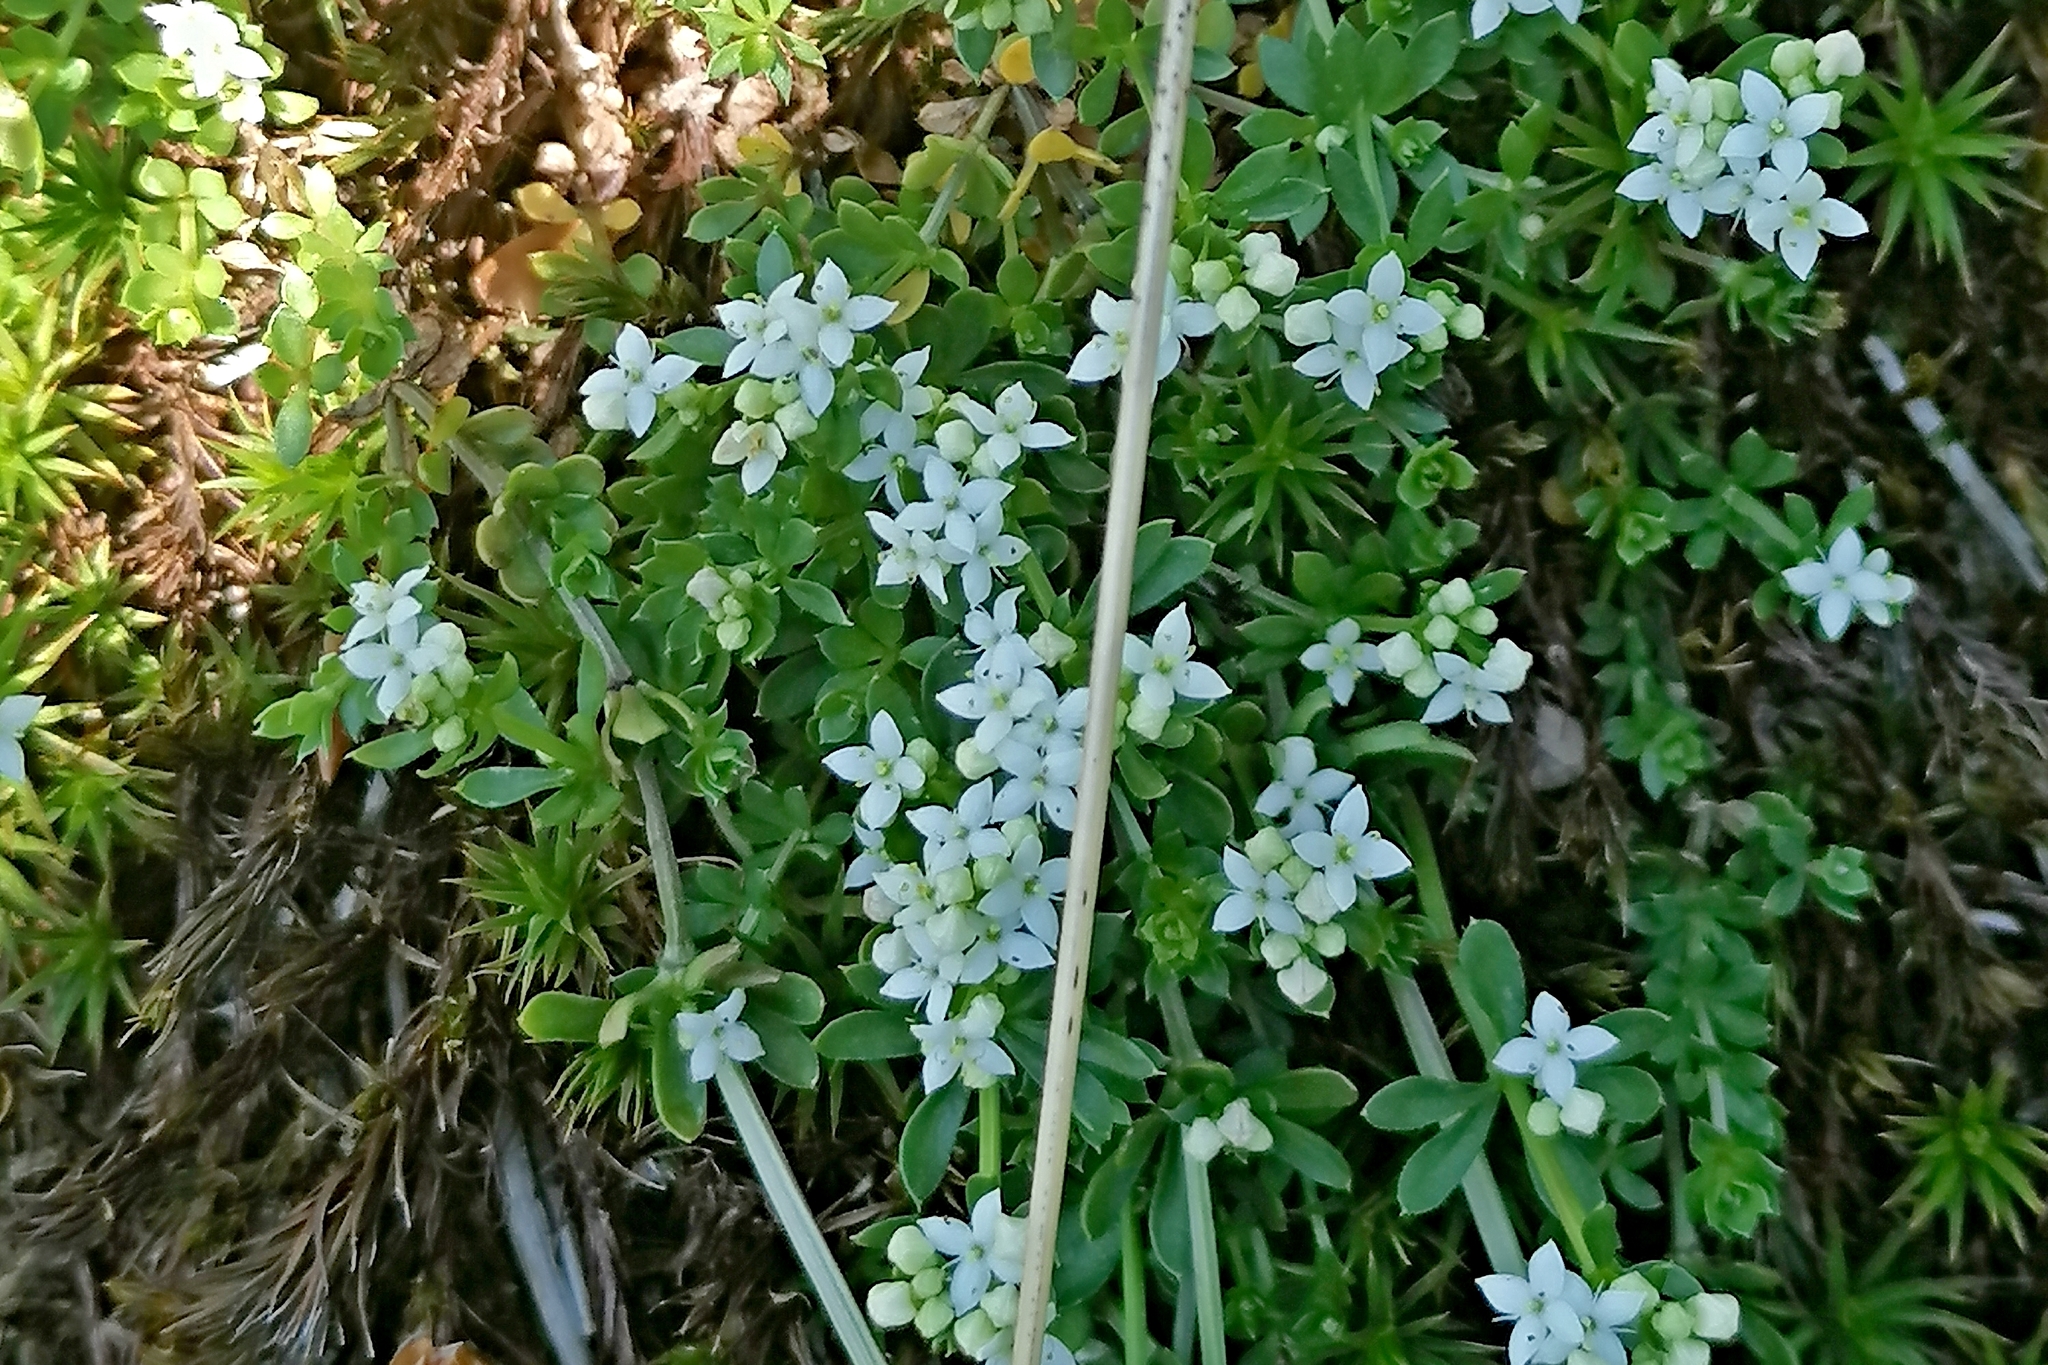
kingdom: Plantae
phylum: Tracheophyta
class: Magnoliopsida
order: Gentianales
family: Rubiaceae
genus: Galium
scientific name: Galium saxatile
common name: Heath bedstraw
